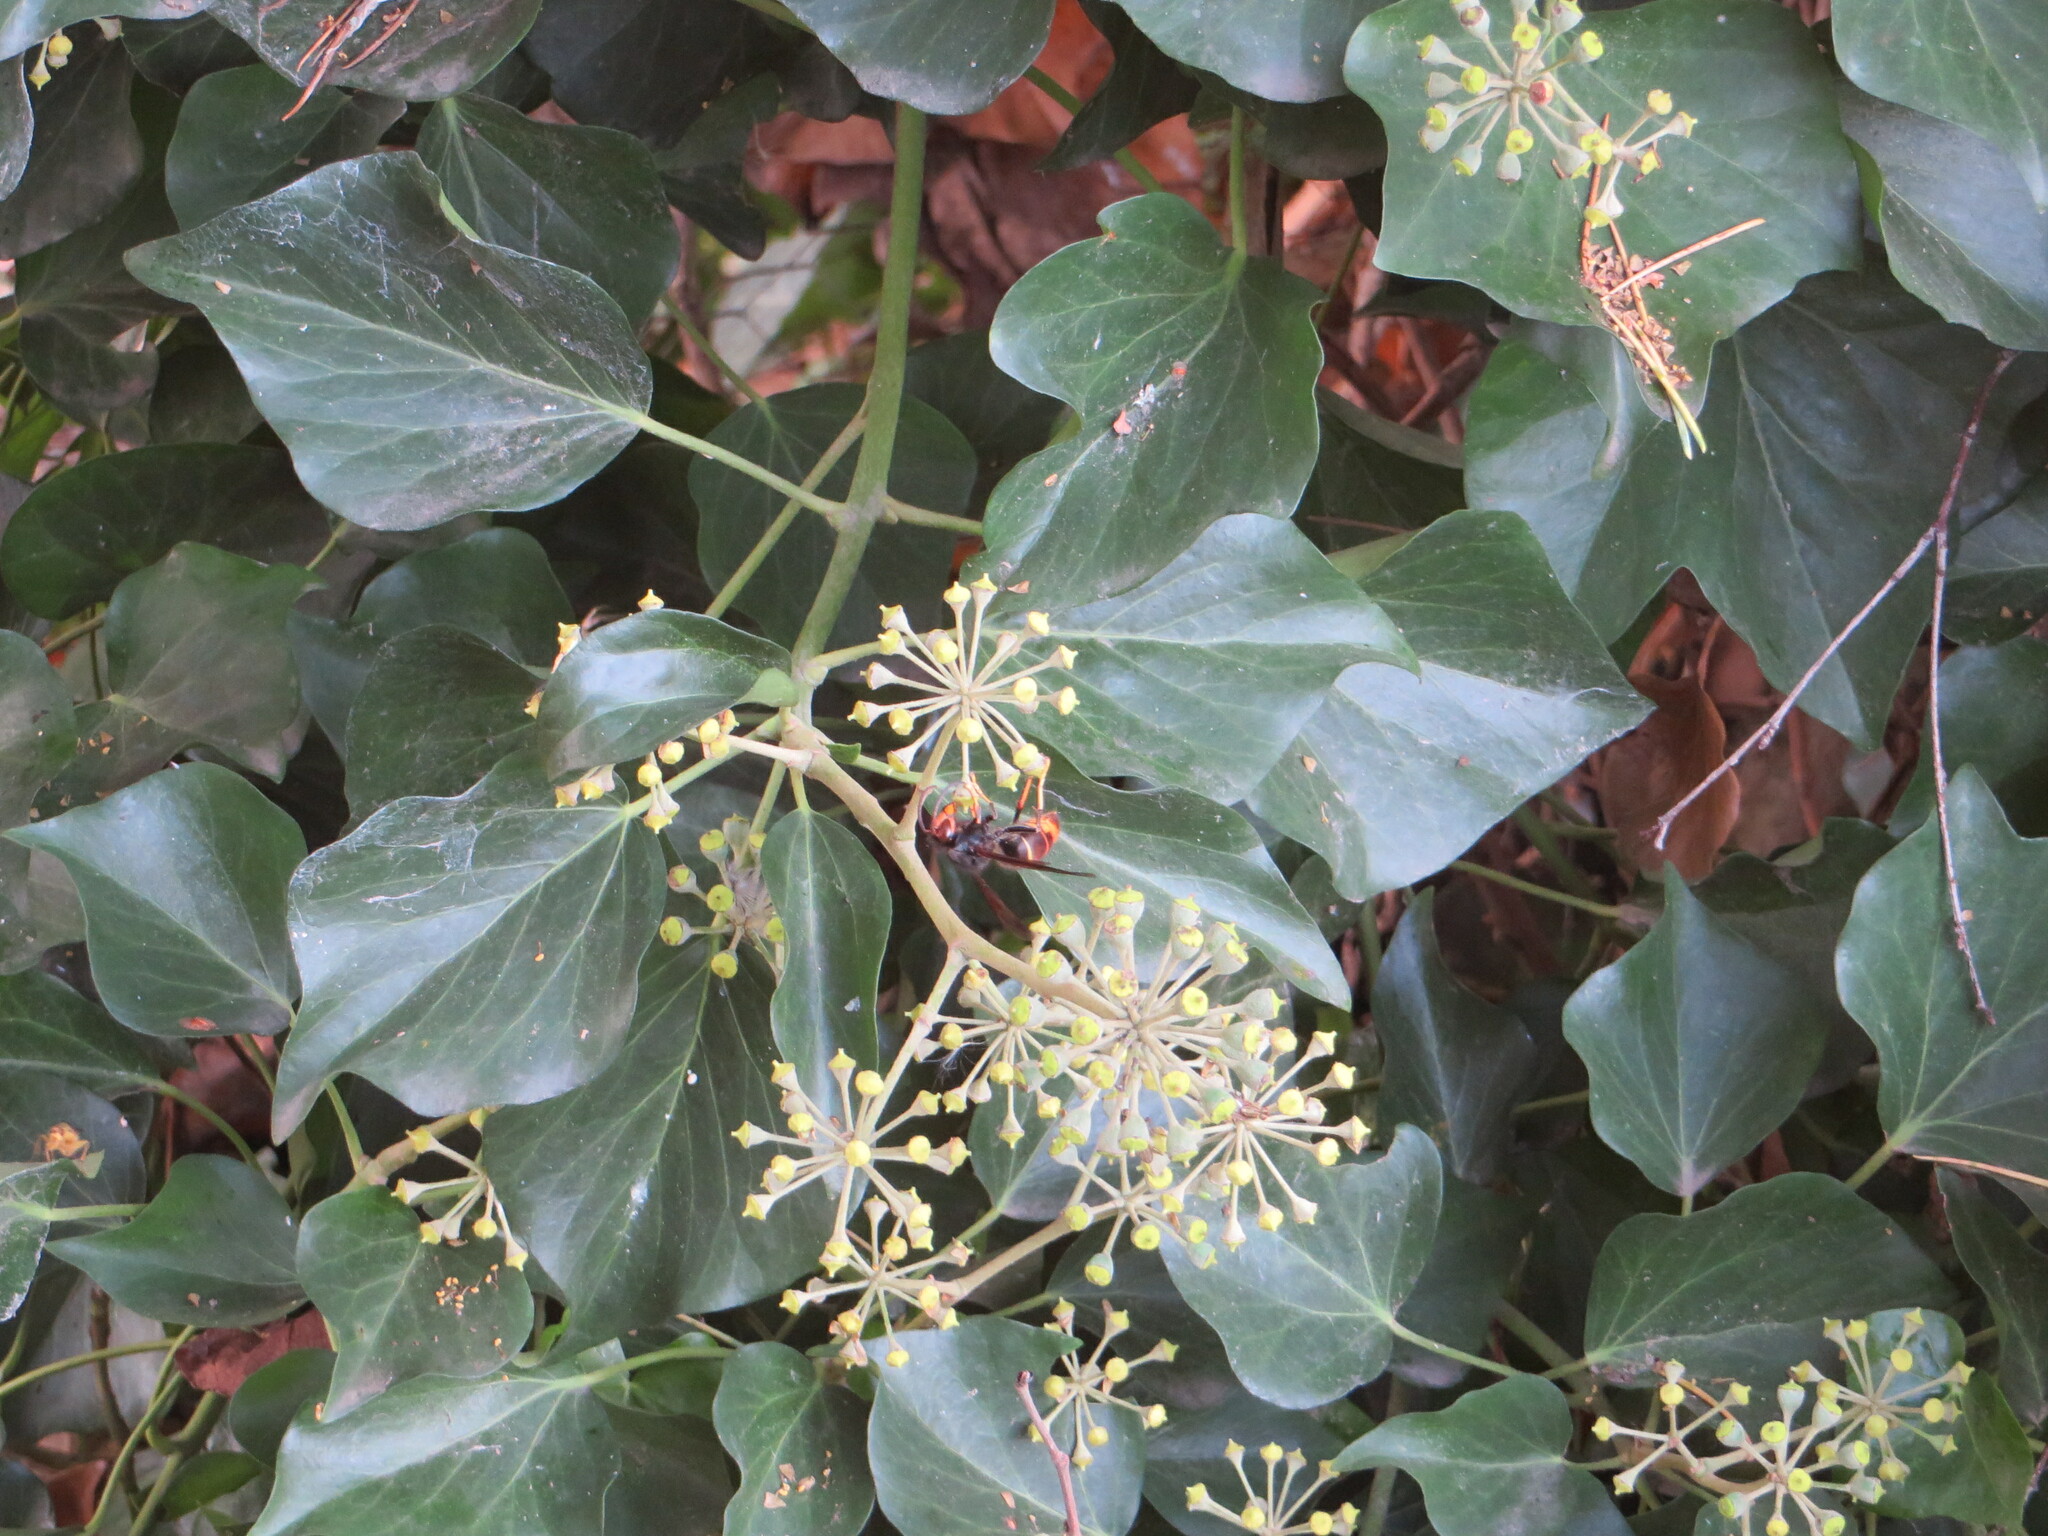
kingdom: Animalia
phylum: Arthropoda
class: Insecta
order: Hymenoptera
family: Vespidae
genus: Vespa
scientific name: Vespa velutina
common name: Asian hornet
